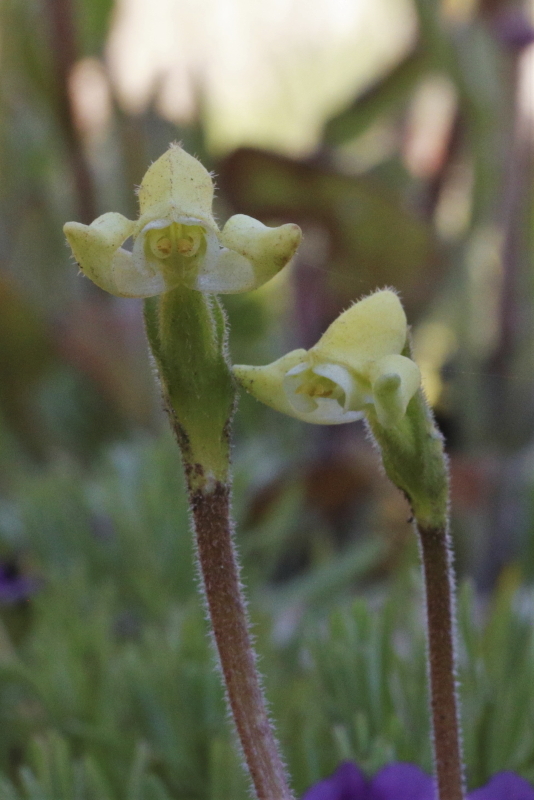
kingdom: Plantae
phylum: Tracheophyta
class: Liliopsida
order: Asparagales
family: Orchidaceae
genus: Disperis
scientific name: Disperis villosa
